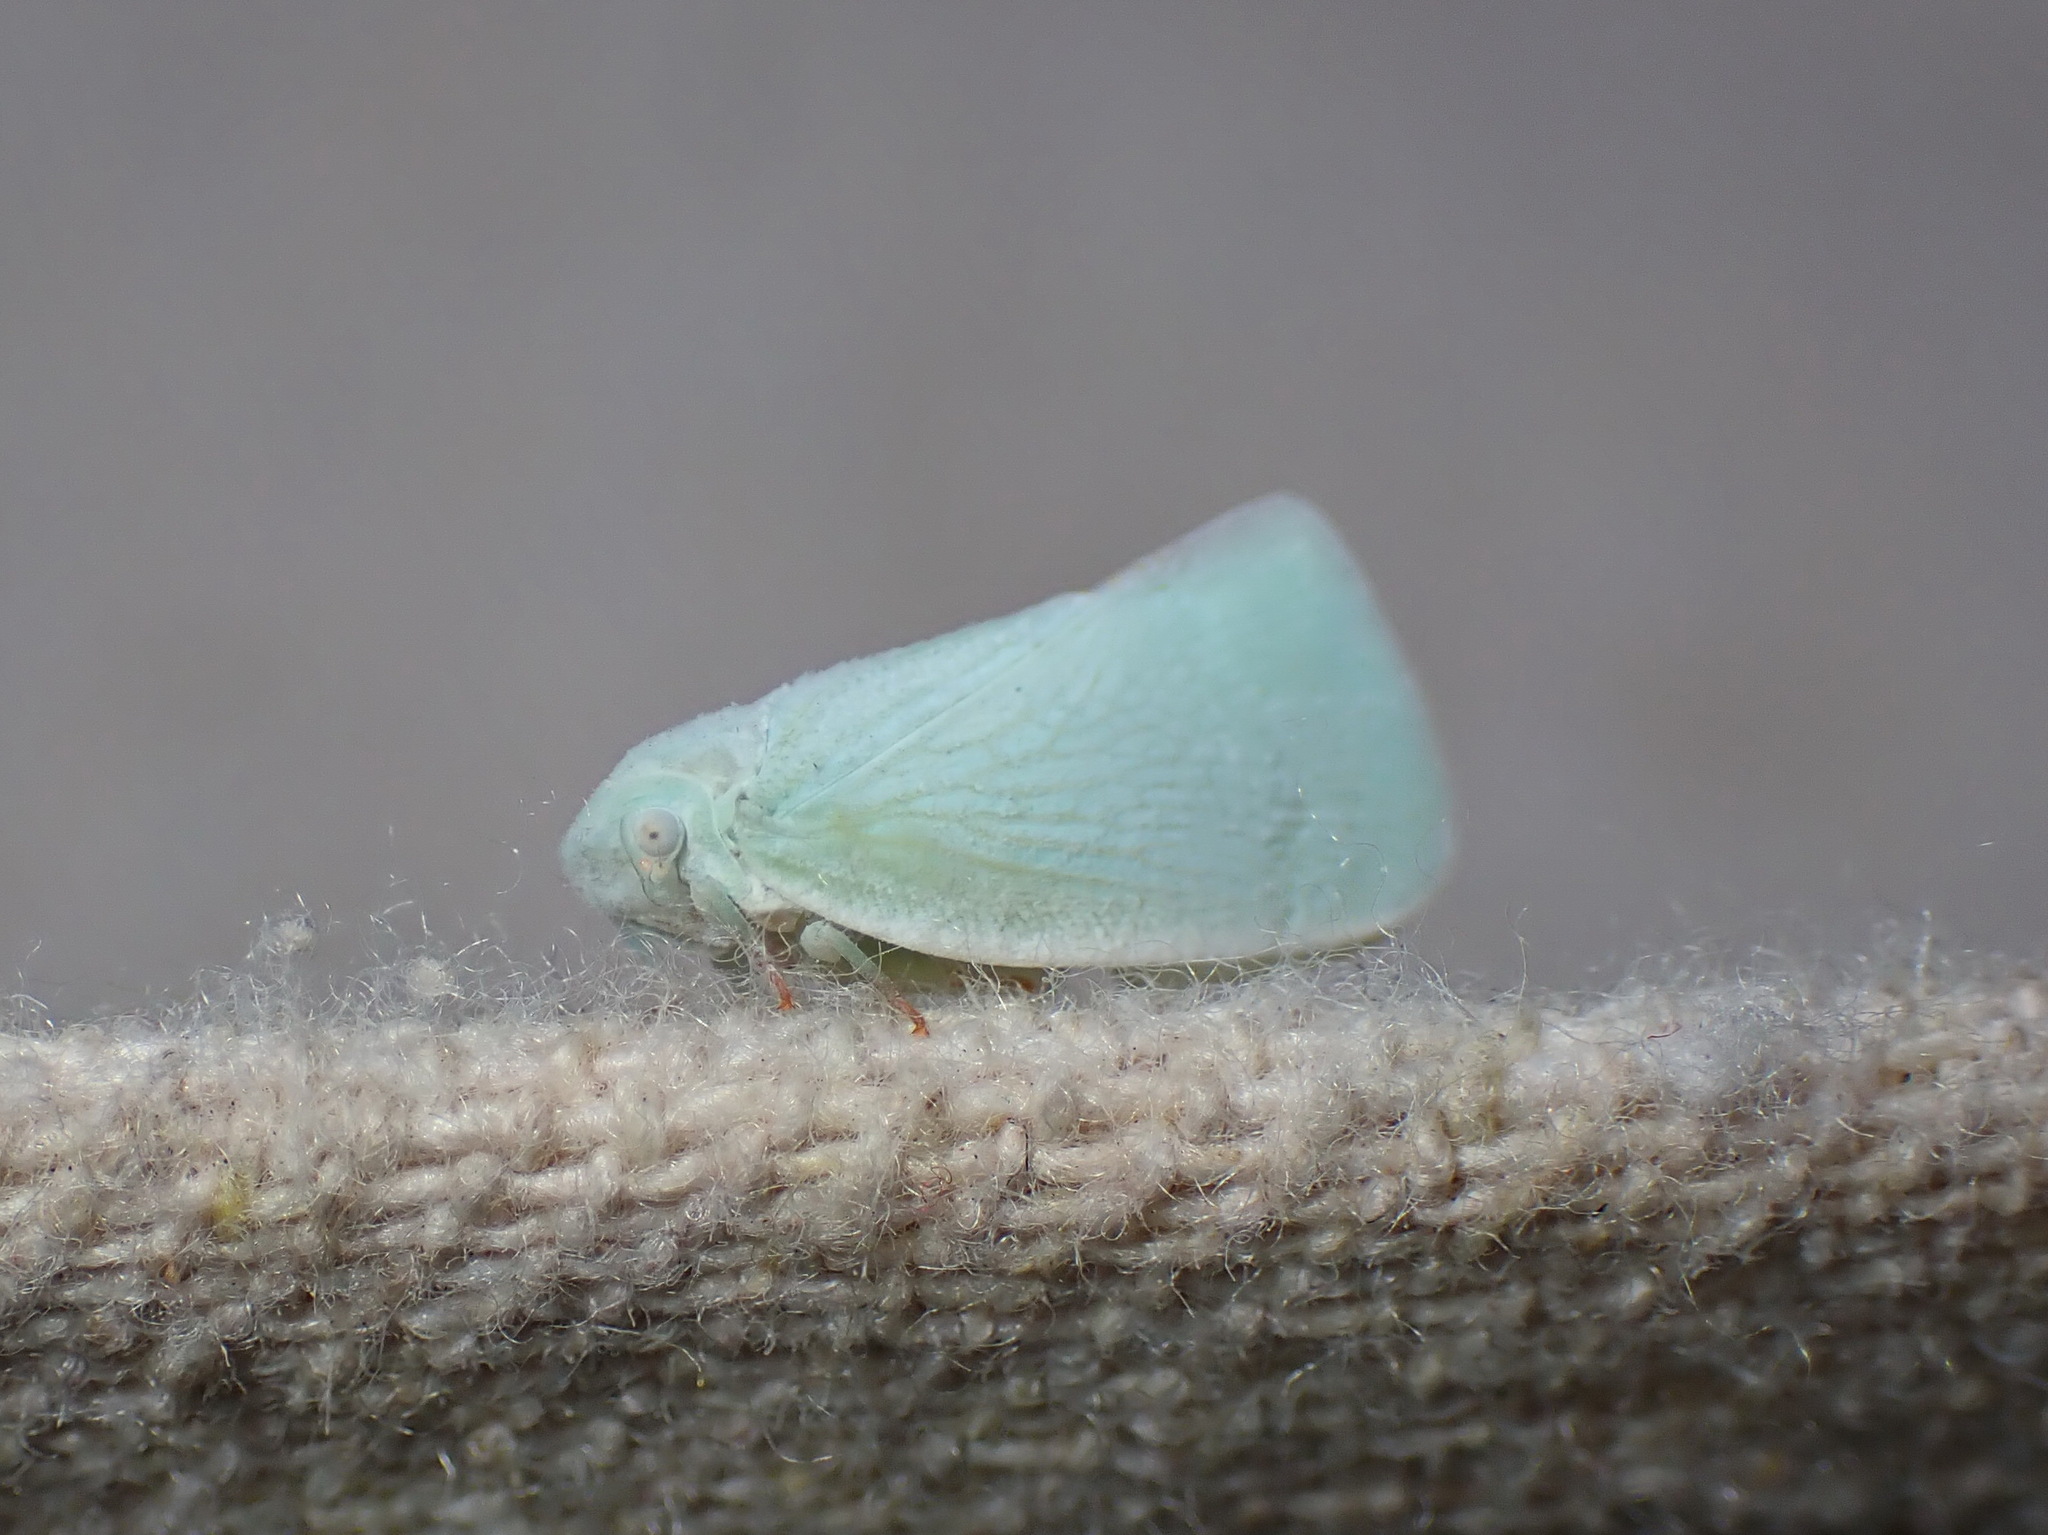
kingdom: Animalia
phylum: Arthropoda
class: Insecta
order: Hemiptera
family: Flatidae
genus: Flatormenis
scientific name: Flatormenis proxima
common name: Northern flatid planthopper
